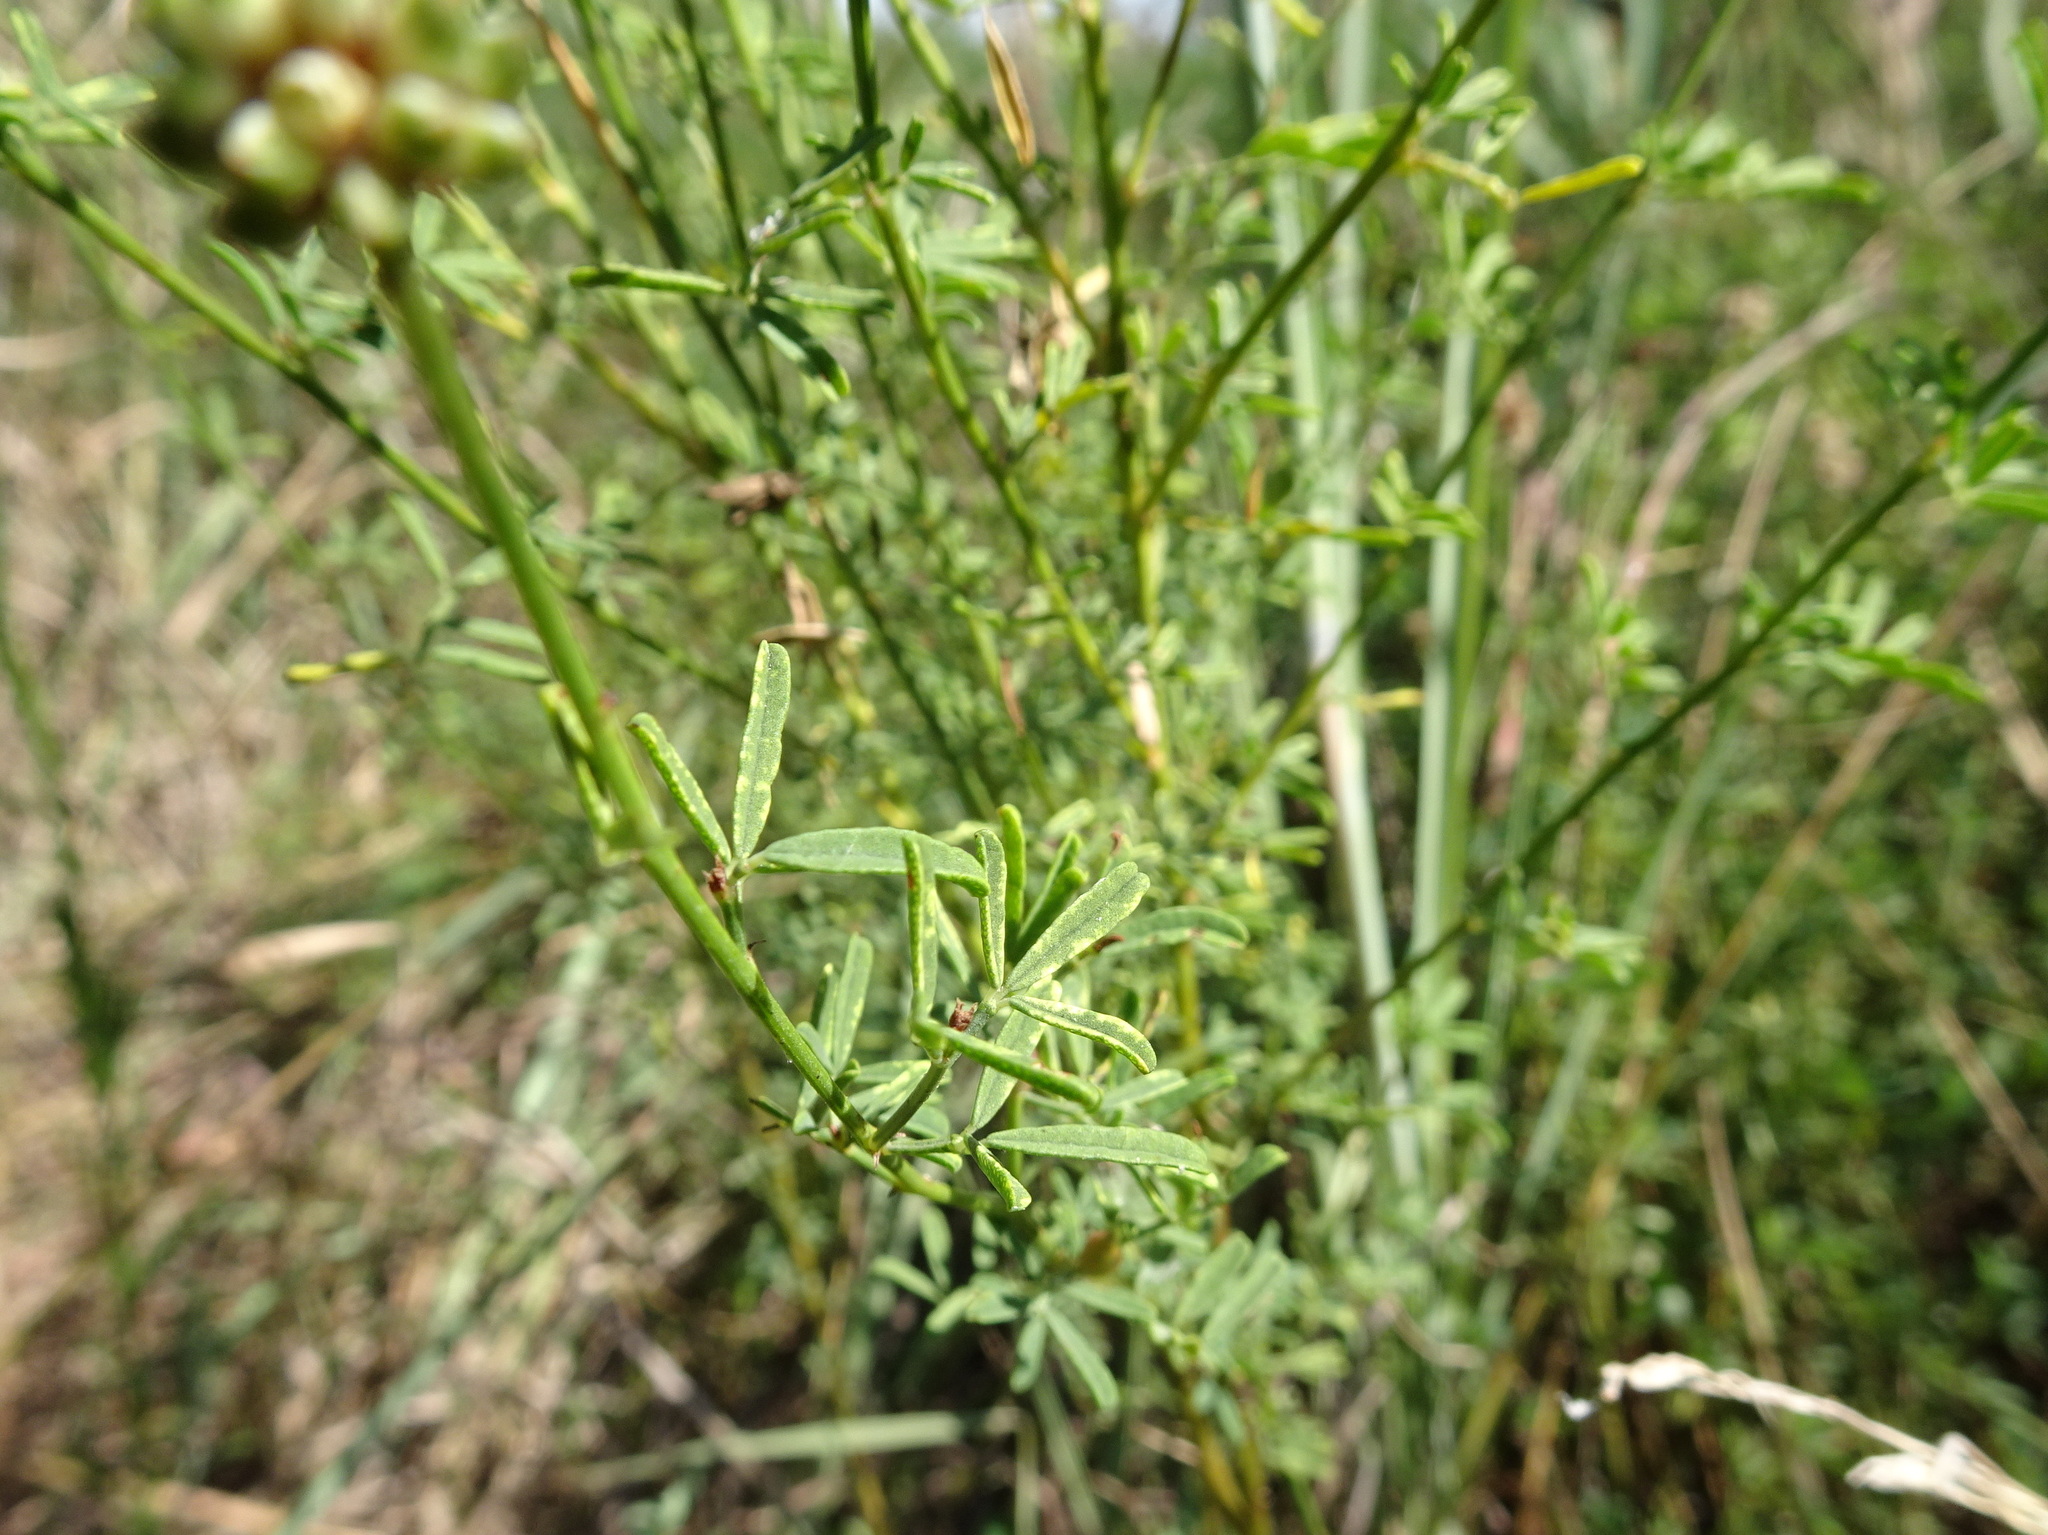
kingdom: Plantae
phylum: Tracheophyta
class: Magnoliopsida
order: Fabales
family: Fabaceae
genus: Dalea
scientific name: Dalea multiflora
